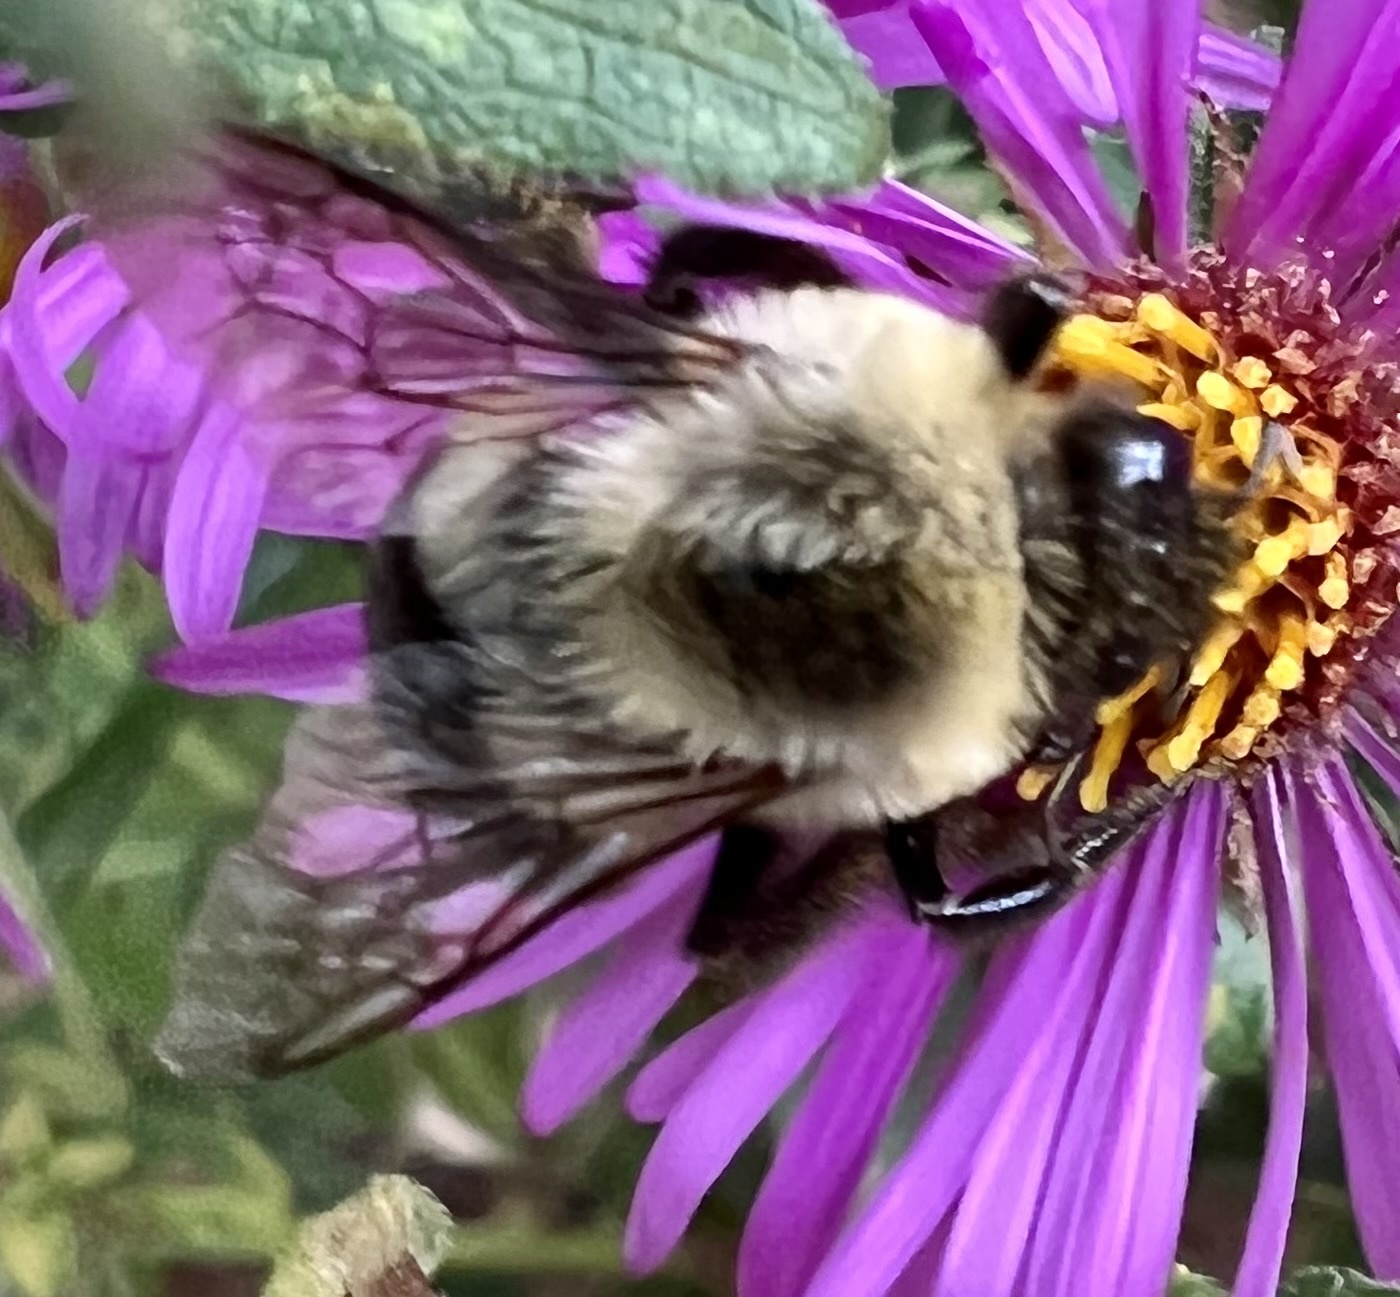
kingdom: Animalia
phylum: Arthropoda
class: Insecta
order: Hymenoptera
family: Apidae
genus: Bombus
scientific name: Bombus impatiens
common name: Common eastern bumble bee
